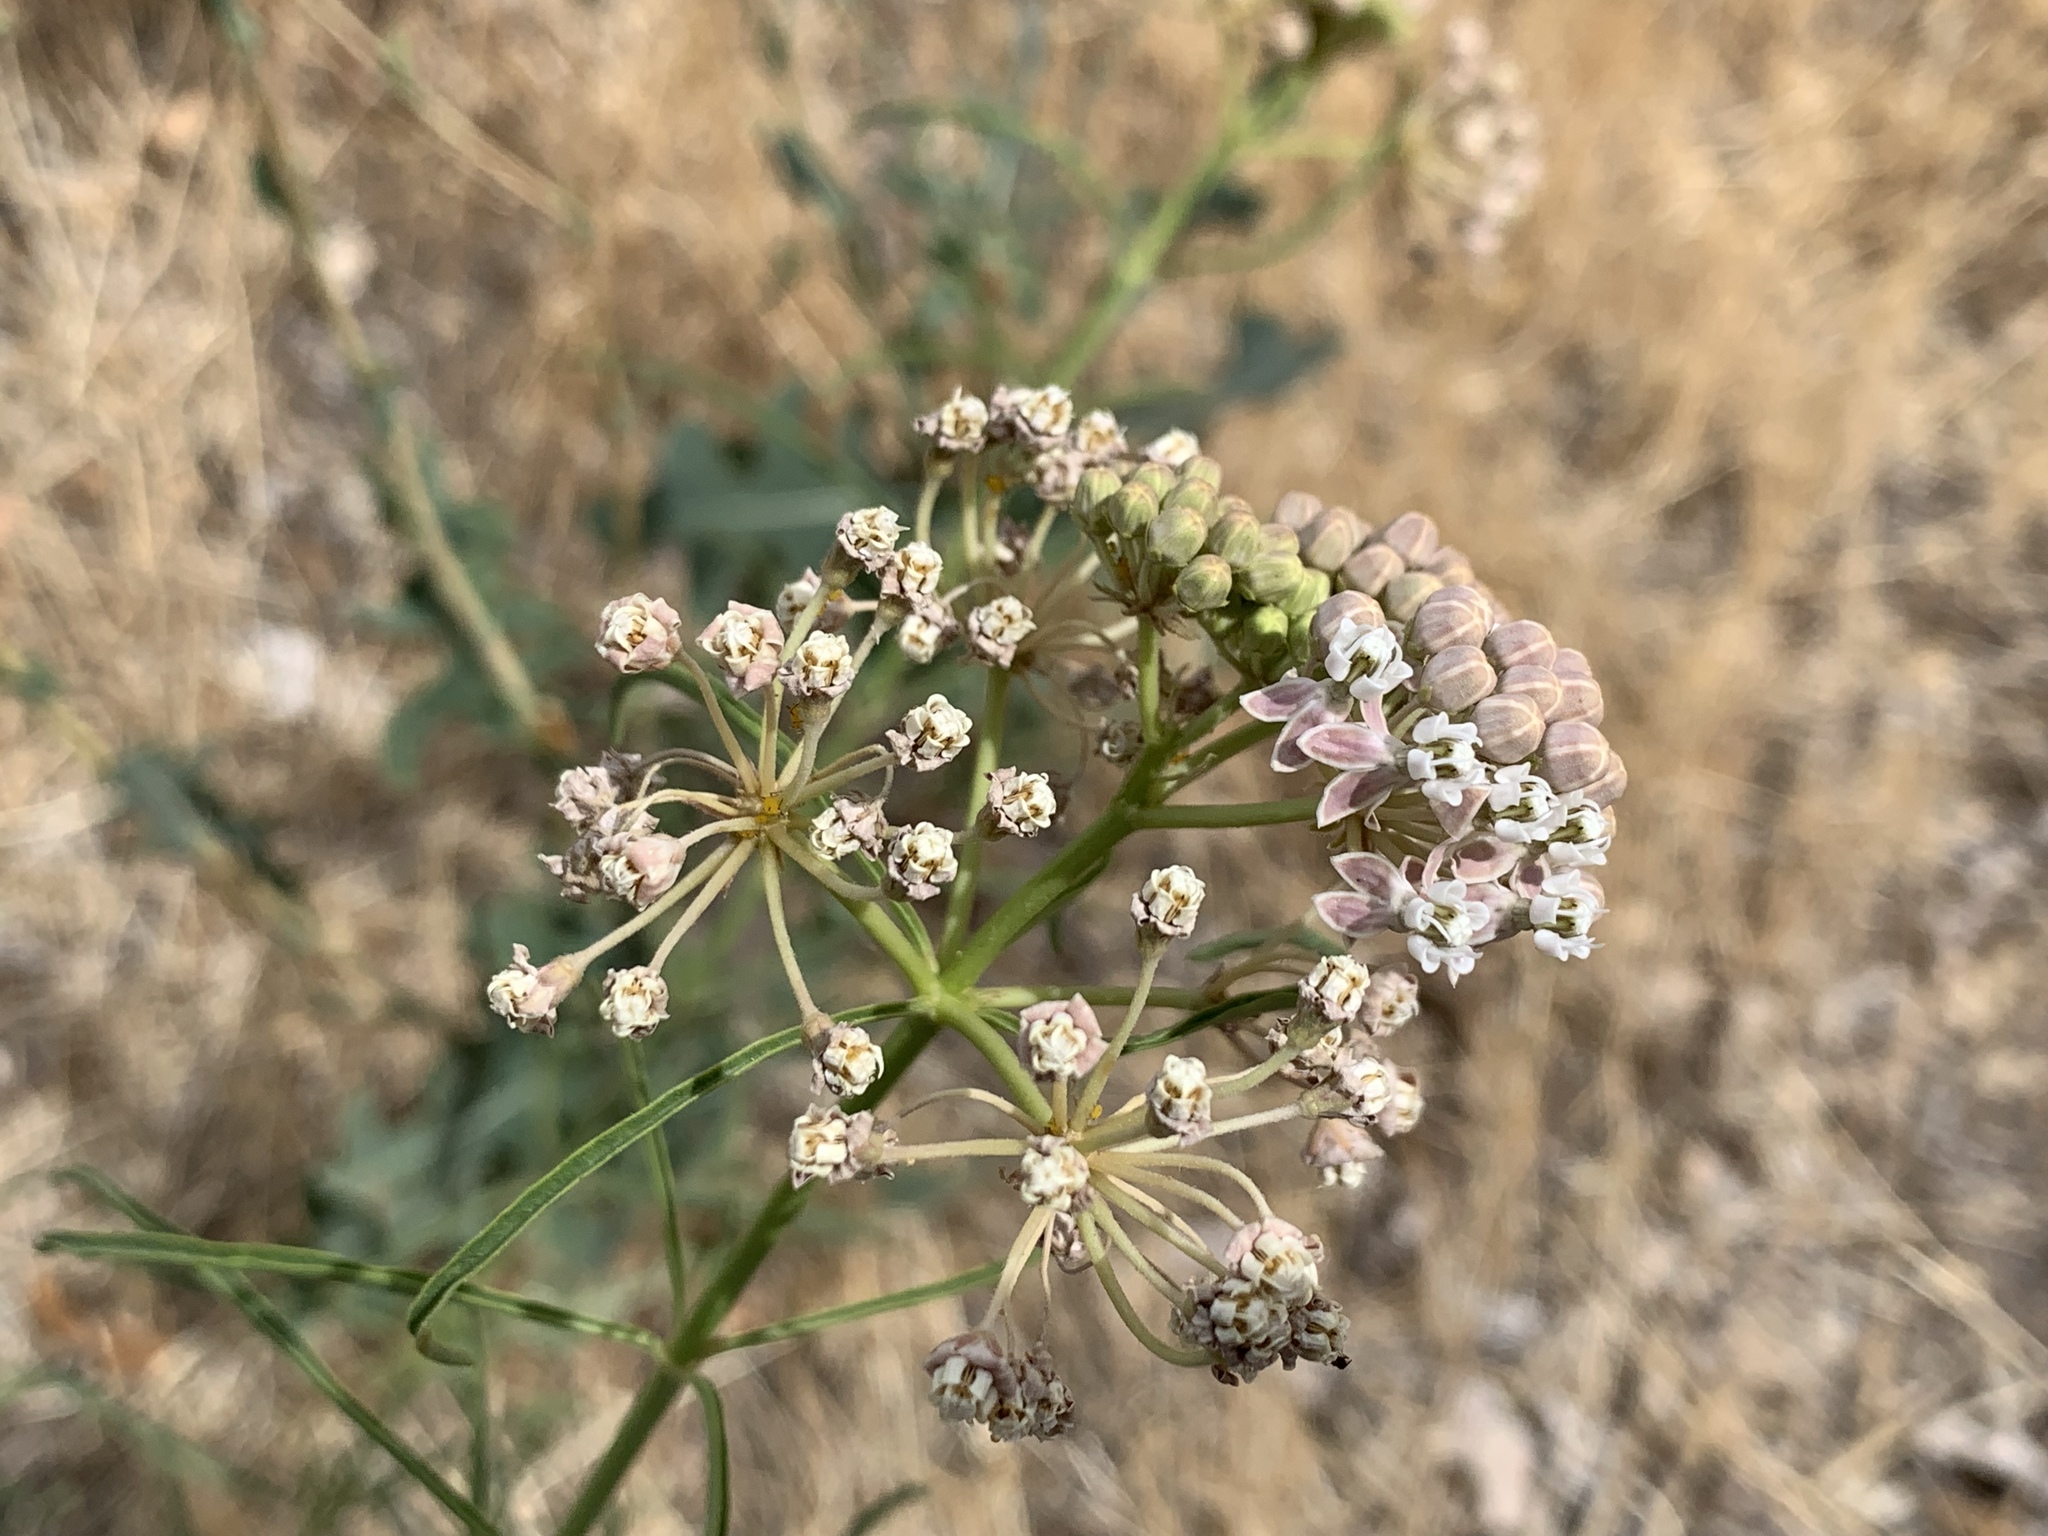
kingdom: Plantae
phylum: Tracheophyta
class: Magnoliopsida
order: Gentianales
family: Apocynaceae
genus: Asclepias
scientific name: Asclepias fascicularis
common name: Mexican milkweed
